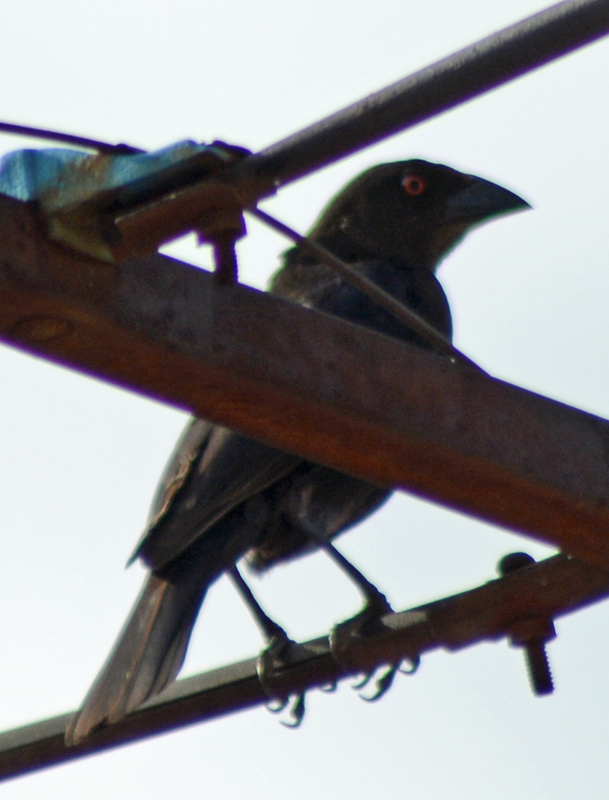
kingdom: Animalia
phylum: Chordata
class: Aves
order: Passeriformes
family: Icteridae
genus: Molothrus
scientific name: Molothrus aeneus
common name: Bronzed cowbird
